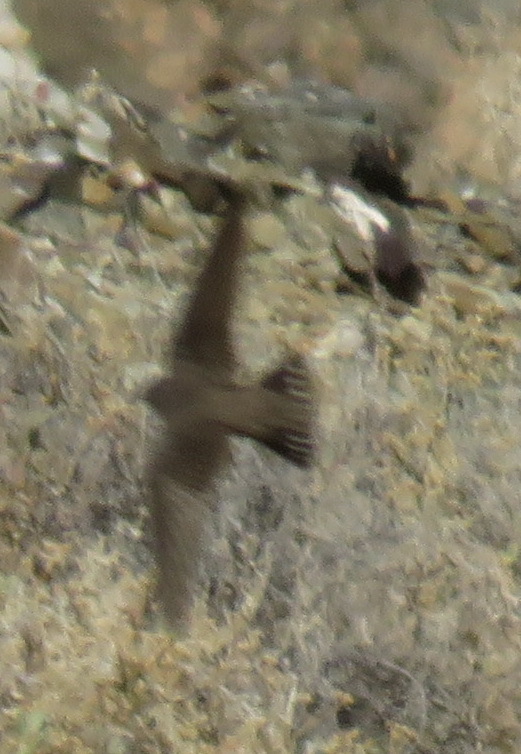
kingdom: Animalia
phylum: Chordata
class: Aves
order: Passeriformes
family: Hirundinidae
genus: Ptyonoprogne
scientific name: Ptyonoprogne fuligula
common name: Rock martin
